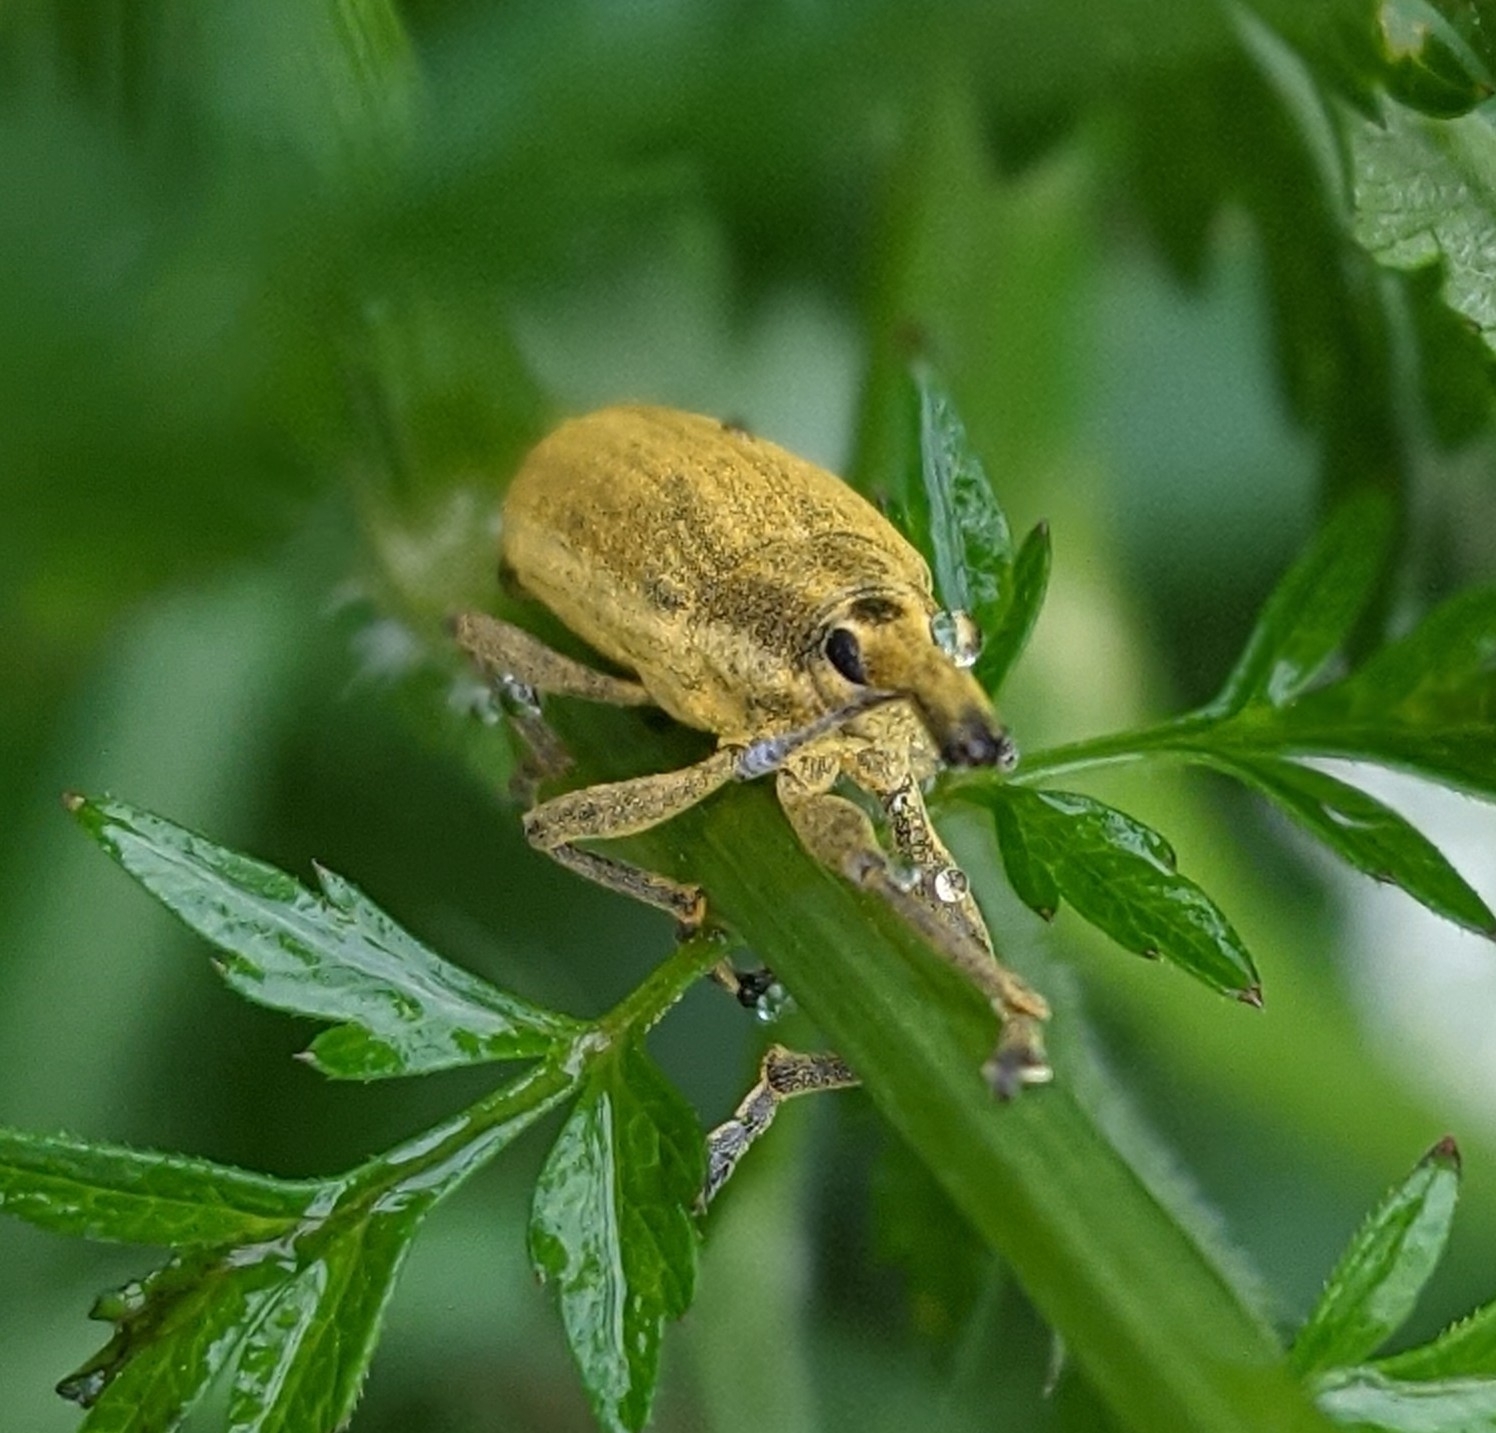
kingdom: Animalia
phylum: Arthropoda
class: Insecta
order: Coleoptera
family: Curculionidae
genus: Lixus
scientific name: Lixus iridis
